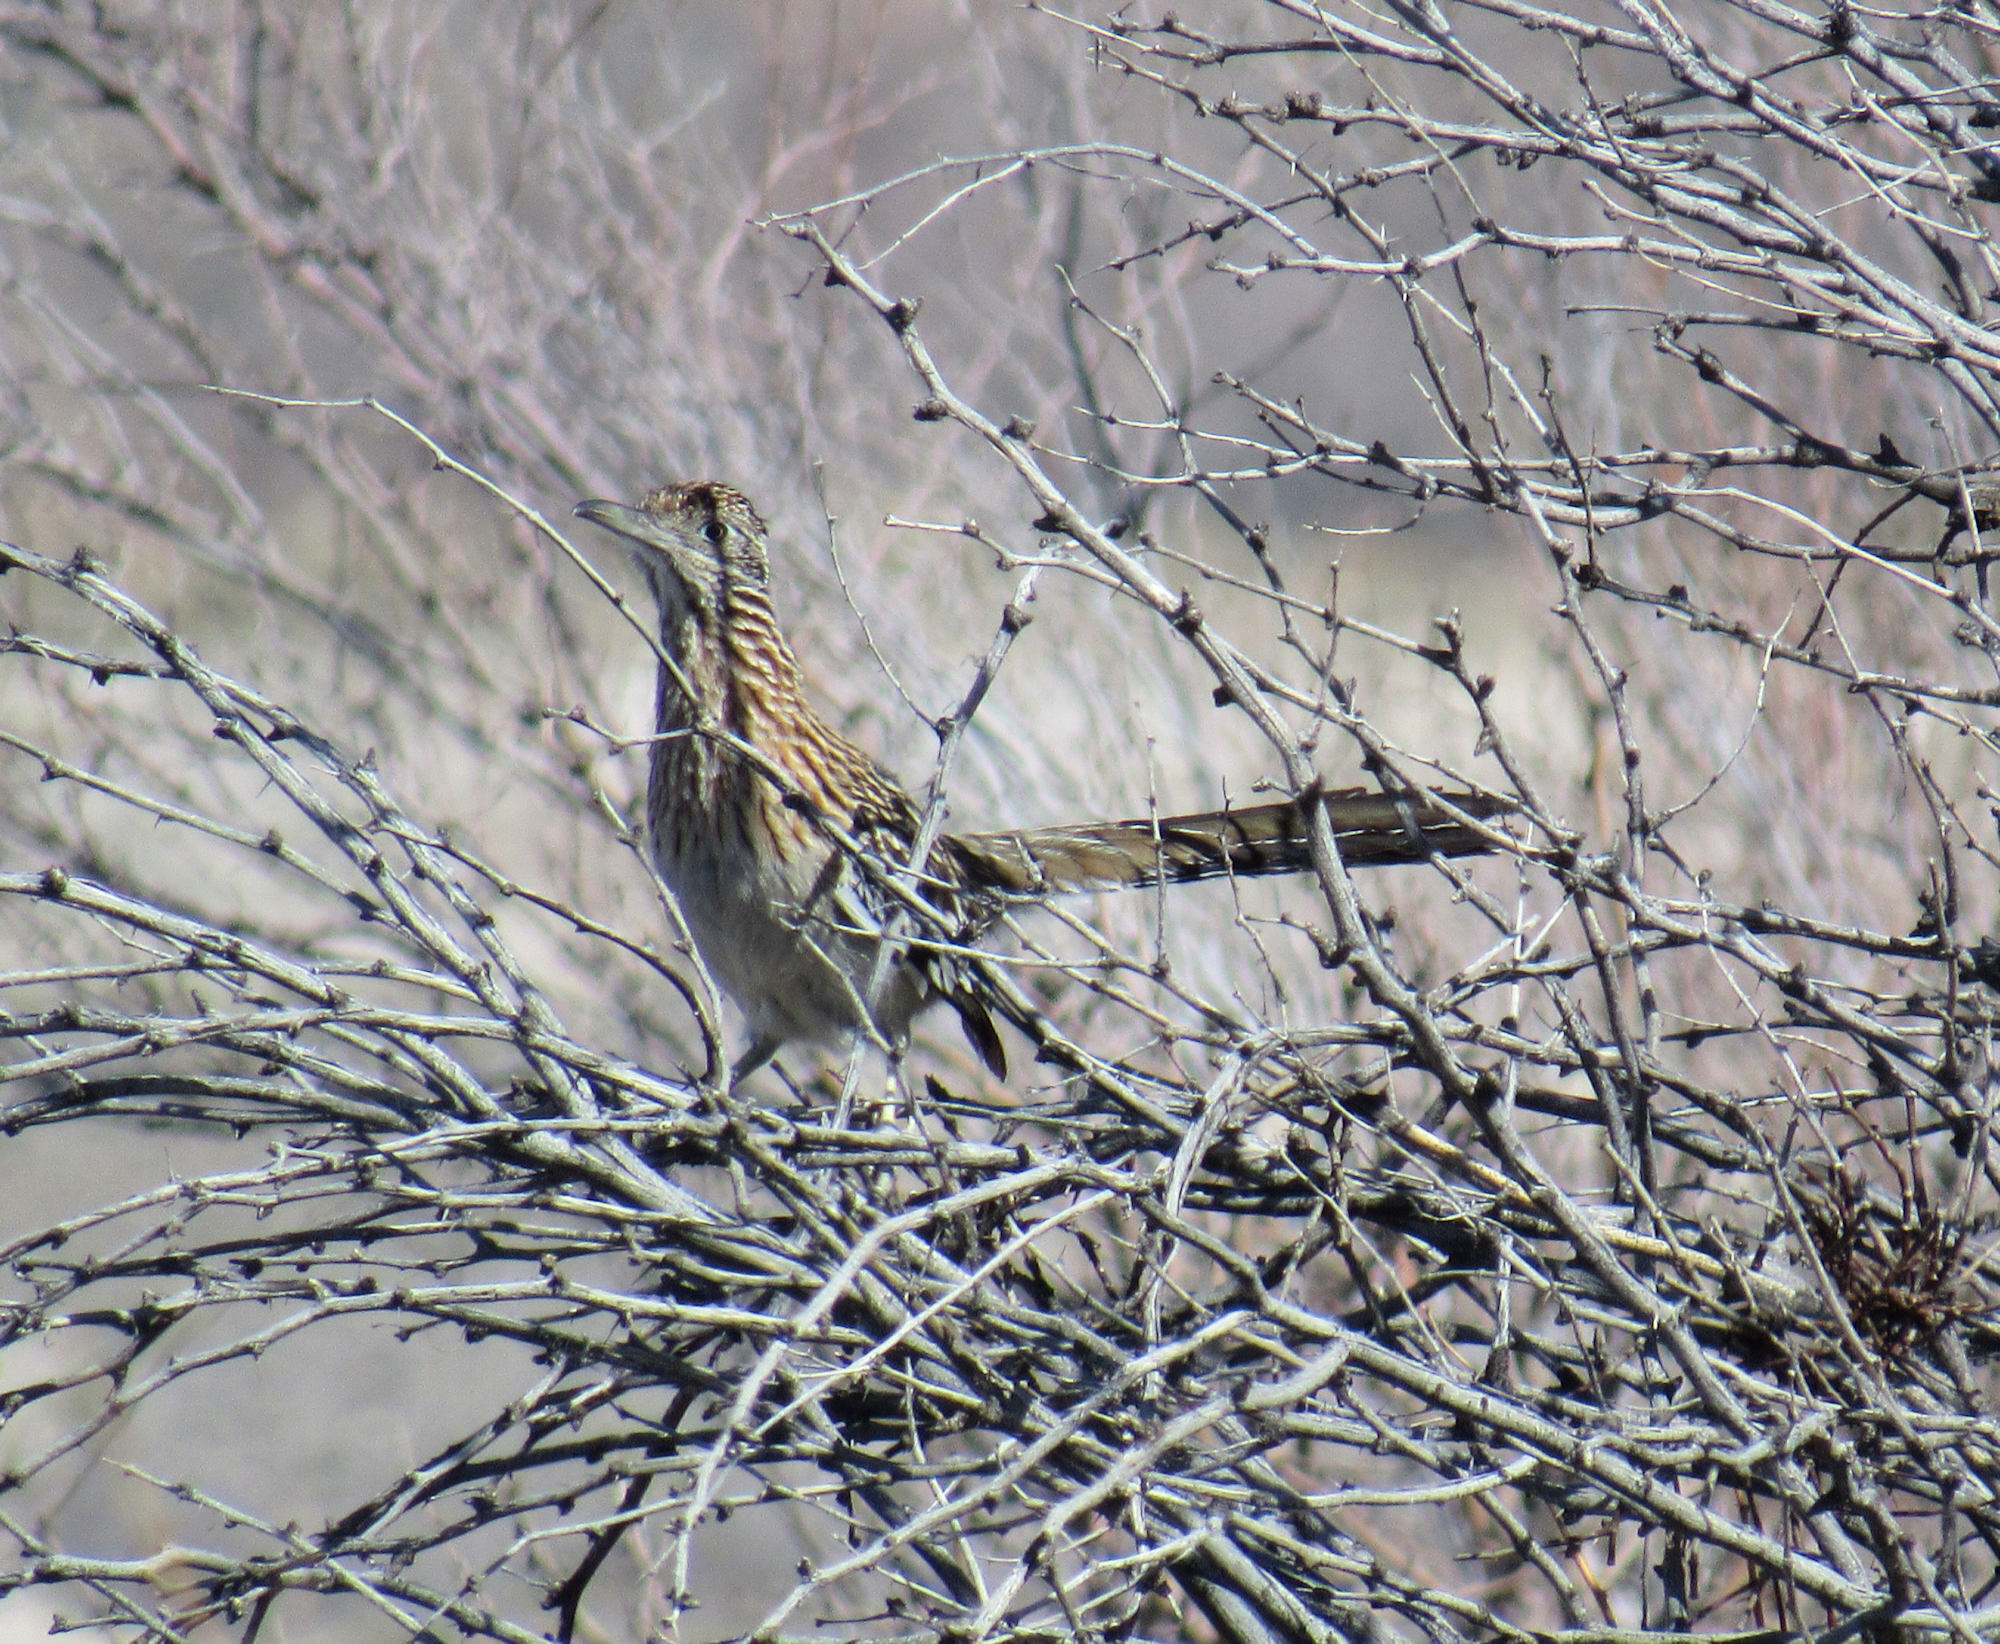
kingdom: Animalia
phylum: Chordata
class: Aves
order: Cuculiformes
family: Cuculidae
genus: Geococcyx
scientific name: Geococcyx californianus
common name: Greater roadrunner
